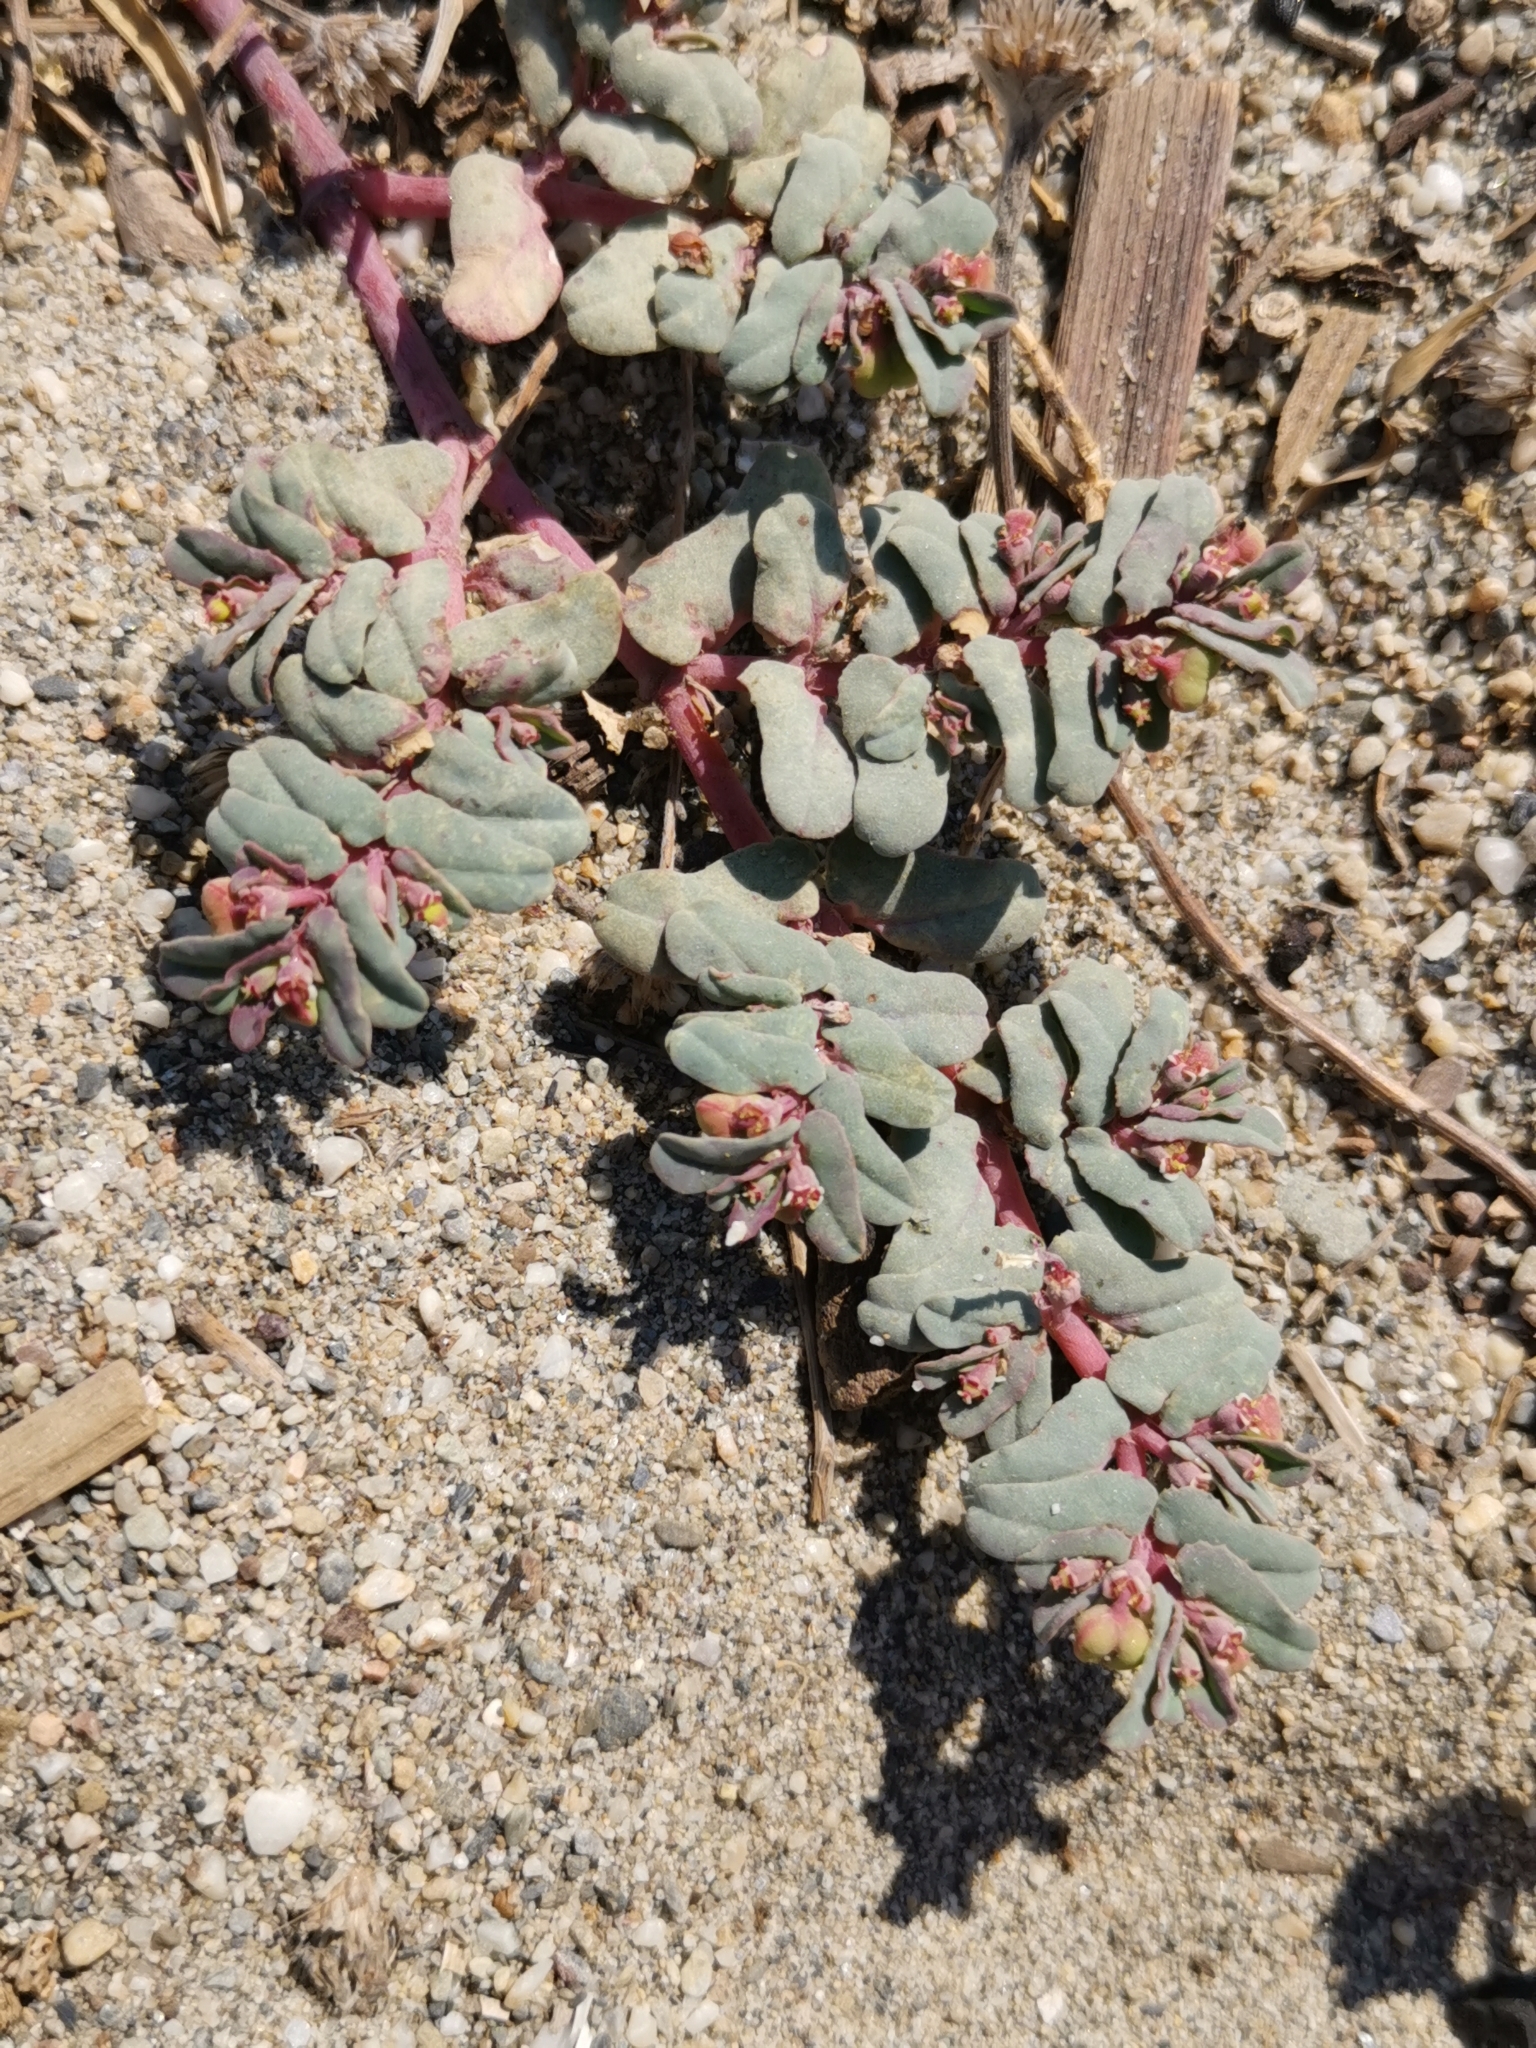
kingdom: Plantae
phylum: Tracheophyta
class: Magnoliopsida
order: Malpighiales
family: Euphorbiaceae
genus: Euphorbia
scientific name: Euphorbia peplis
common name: Purple spurge
